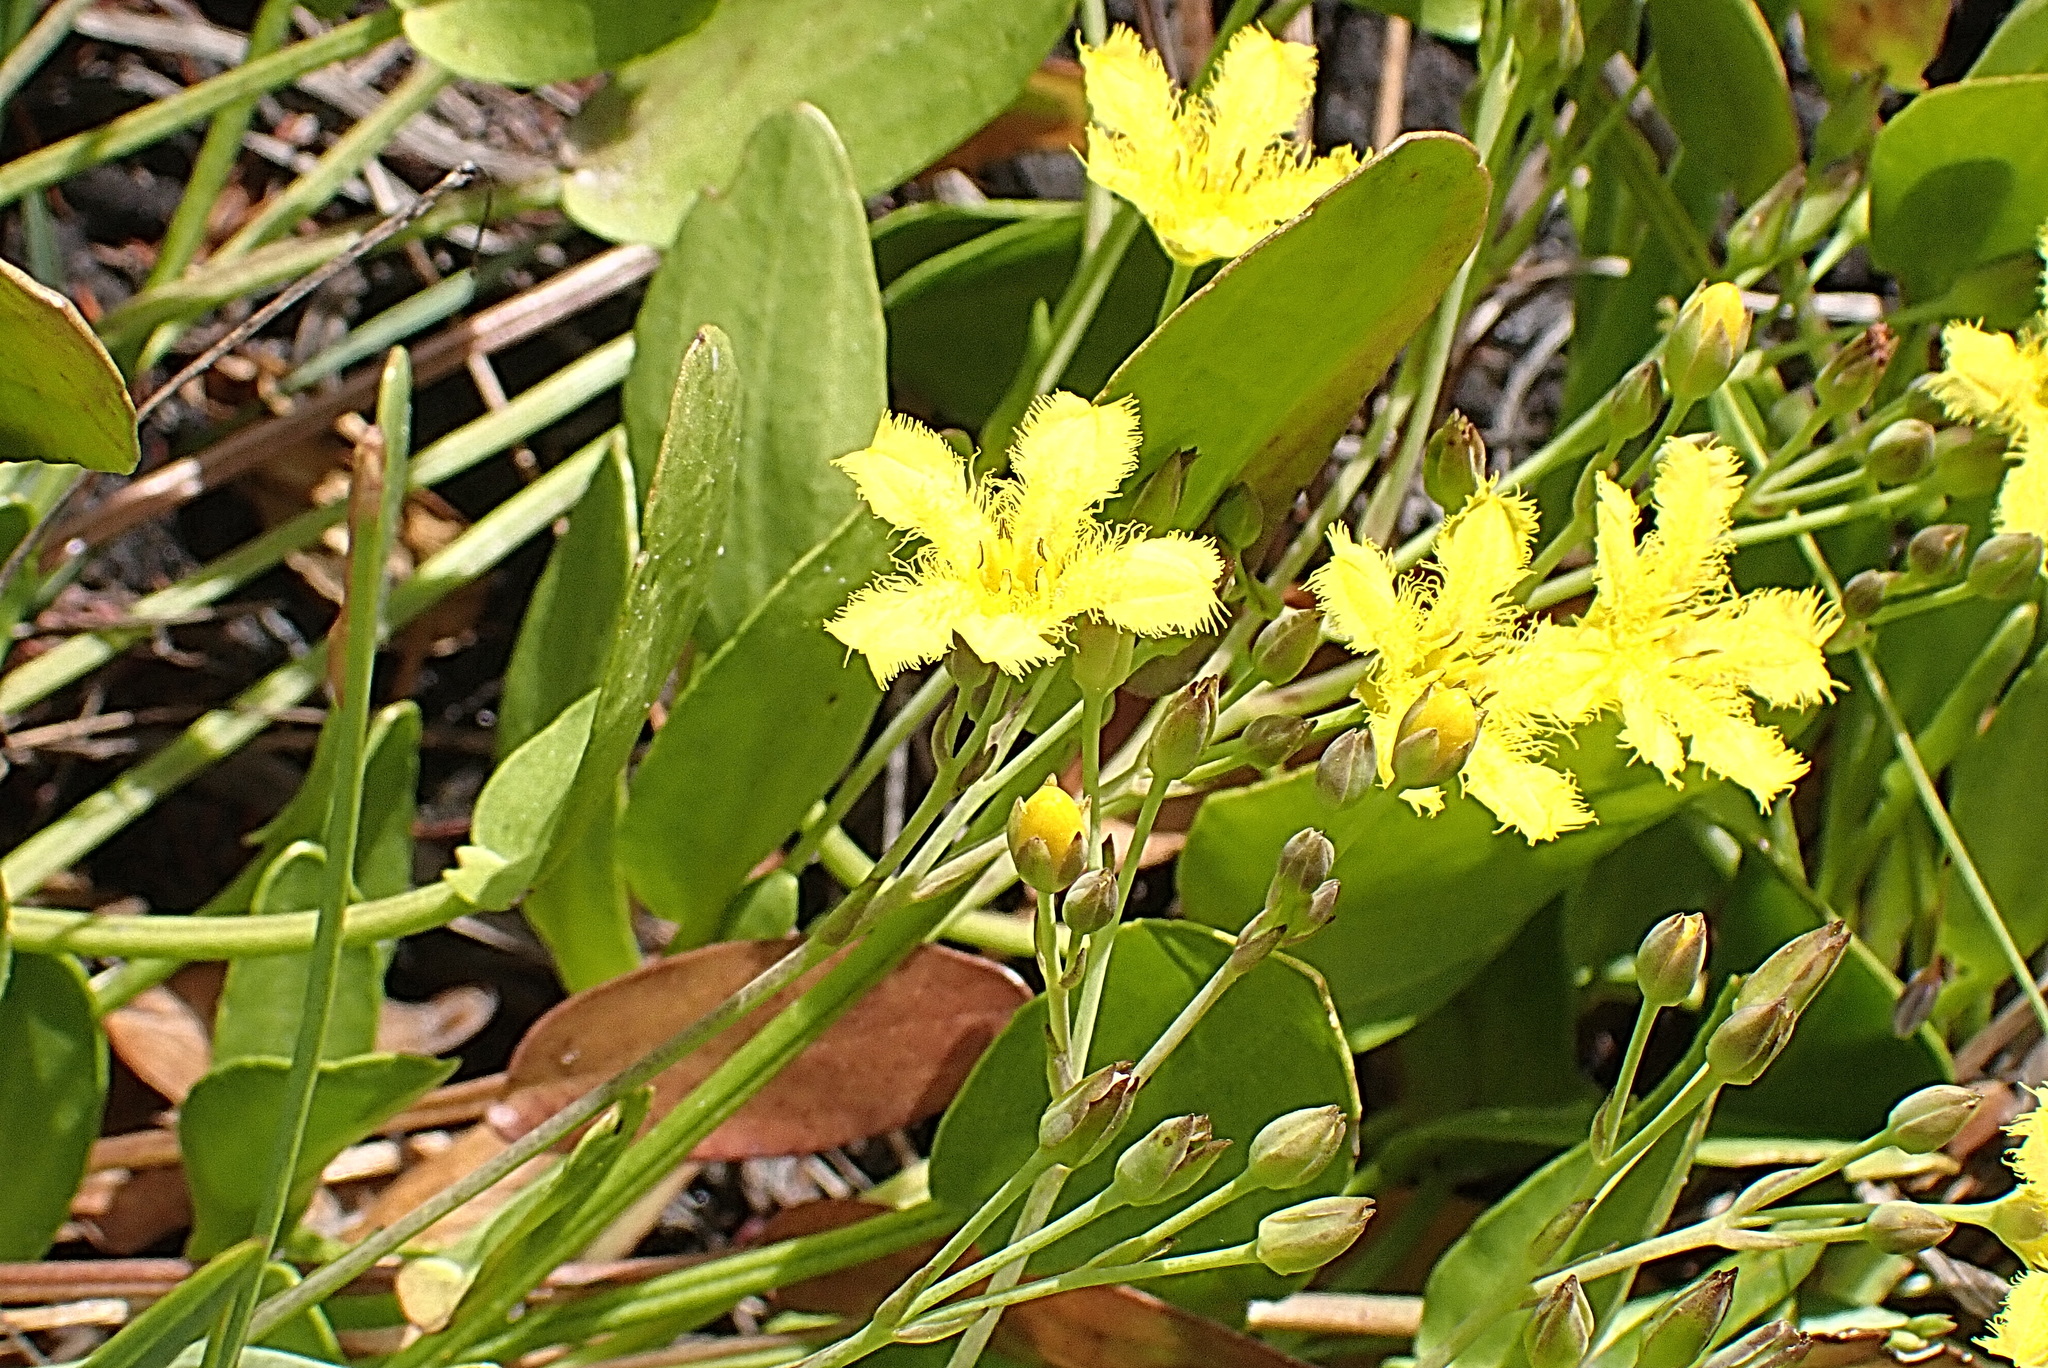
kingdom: Plantae
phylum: Tracheophyta
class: Magnoliopsida
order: Asterales
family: Menyanthaceae
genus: Villarsia
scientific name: Villarsia capensis
